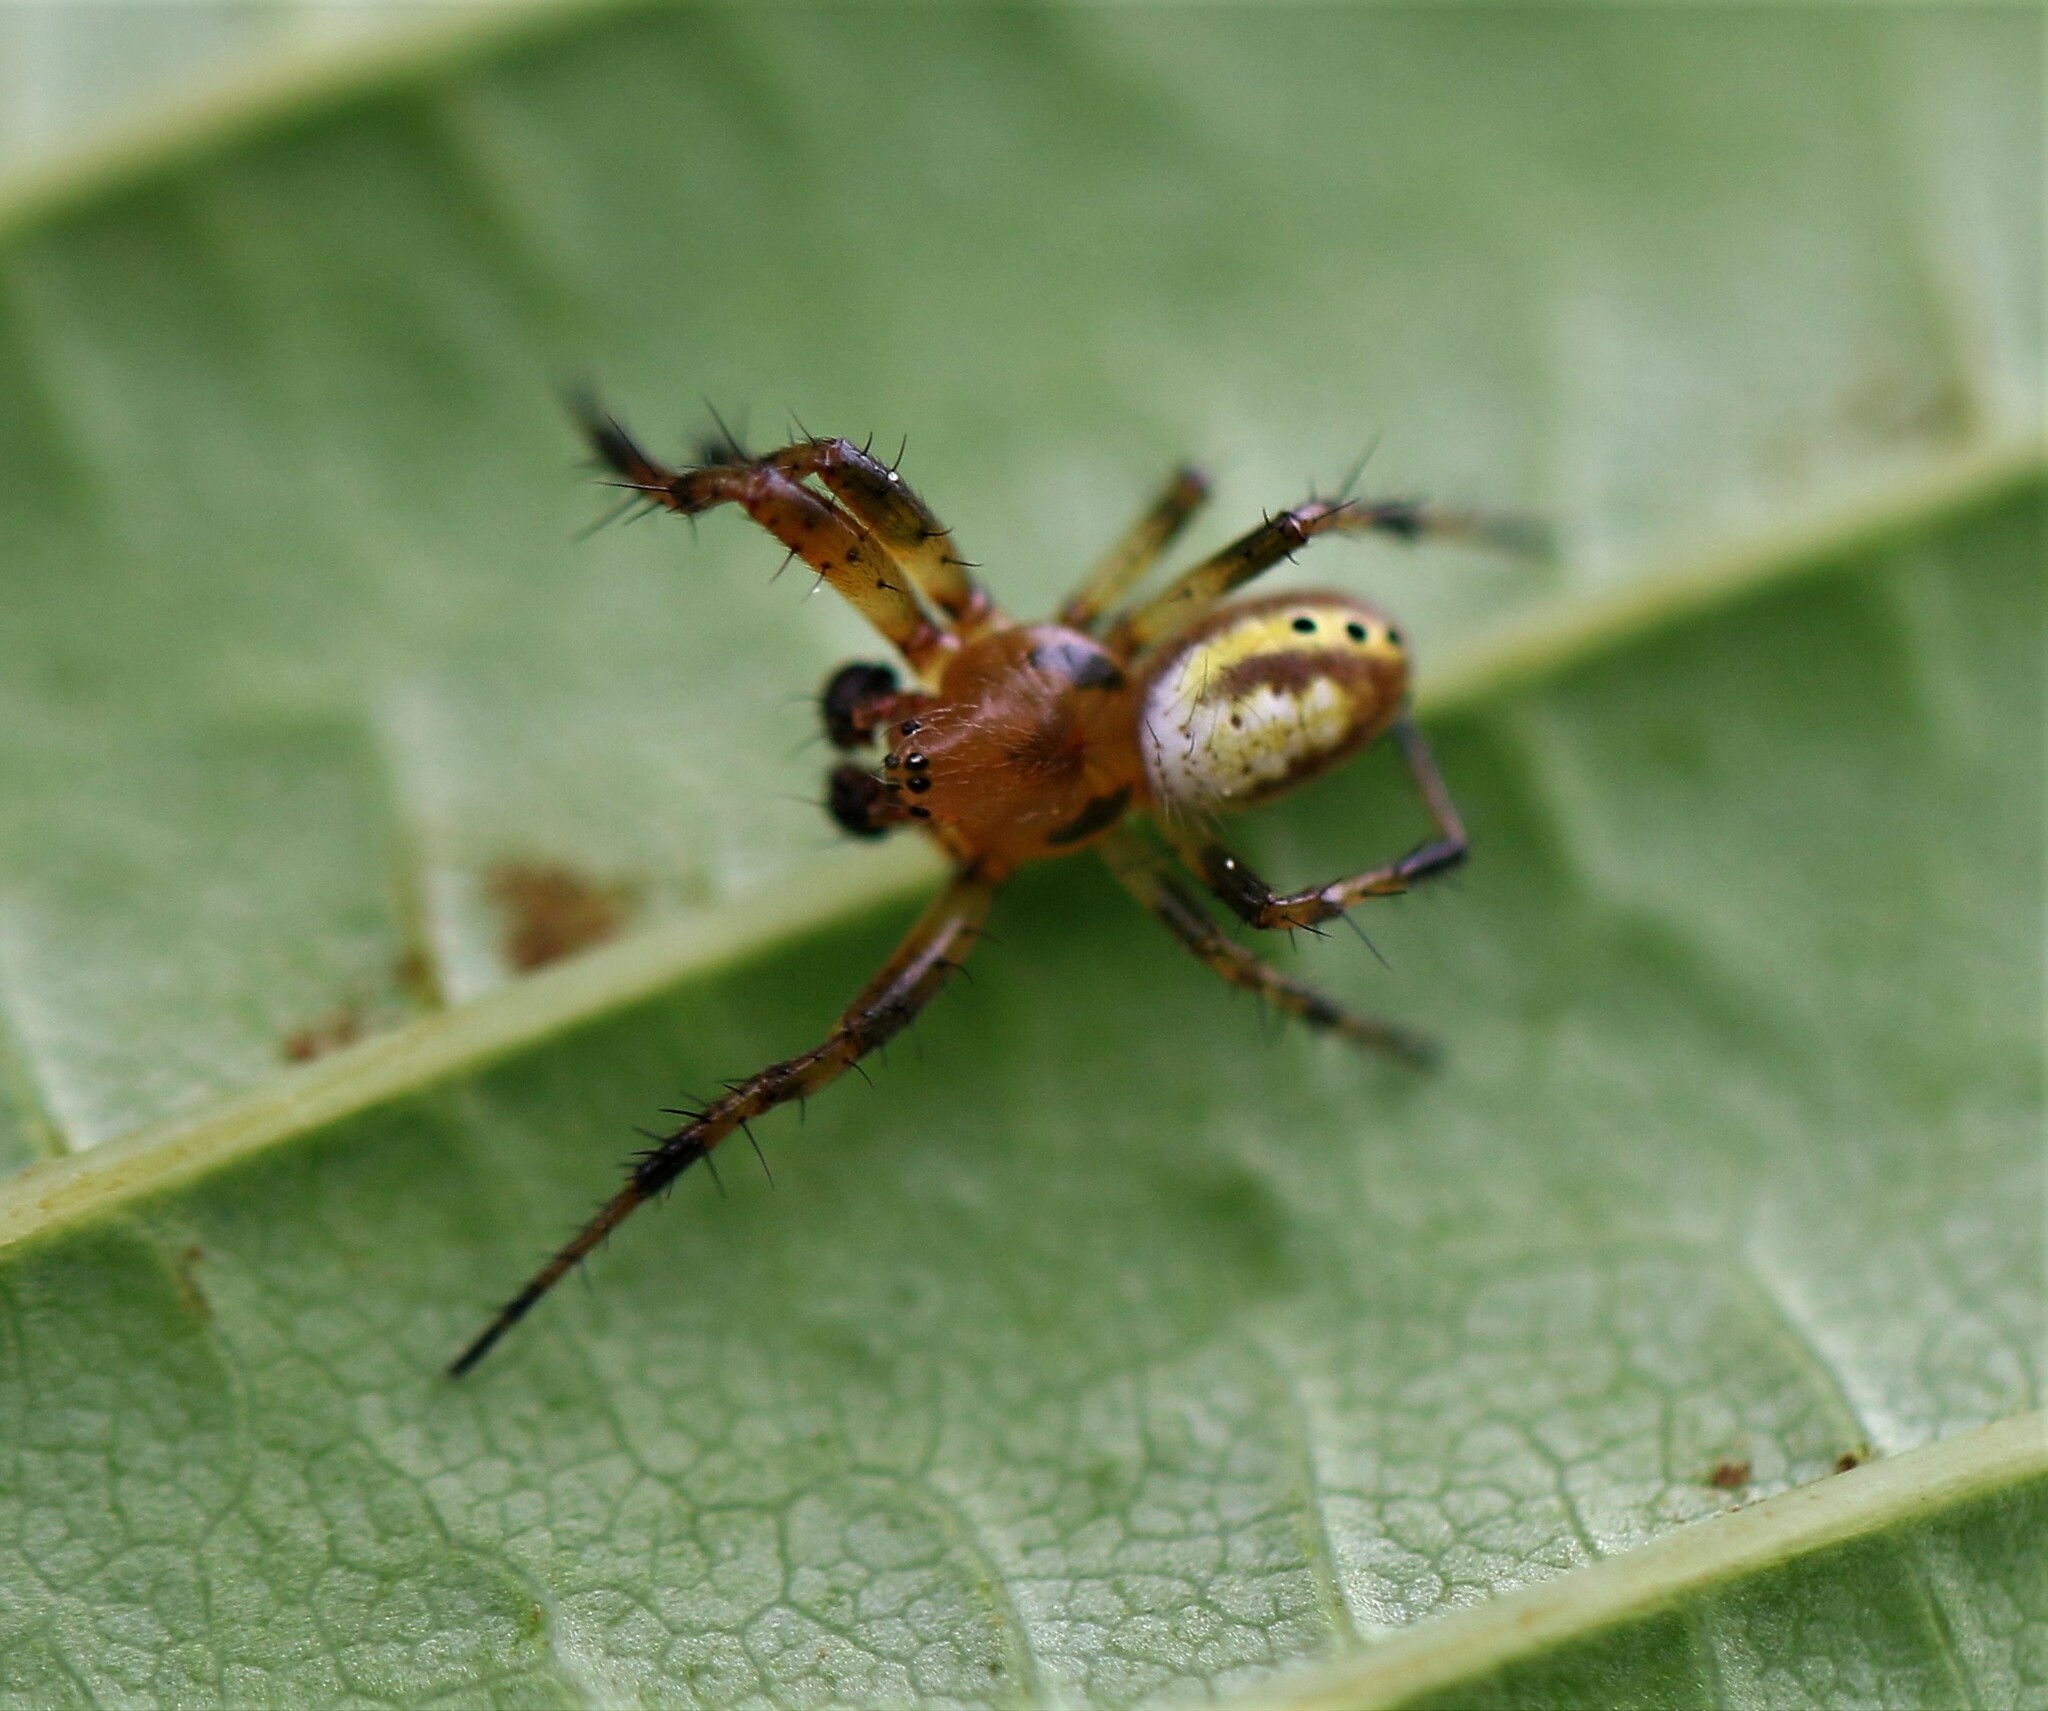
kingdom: Animalia
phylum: Arthropoda
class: Arachnida
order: Araneae
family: Araneidae
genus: Araniella
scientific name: Araniella displicata
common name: Sixspotted orb weaver
